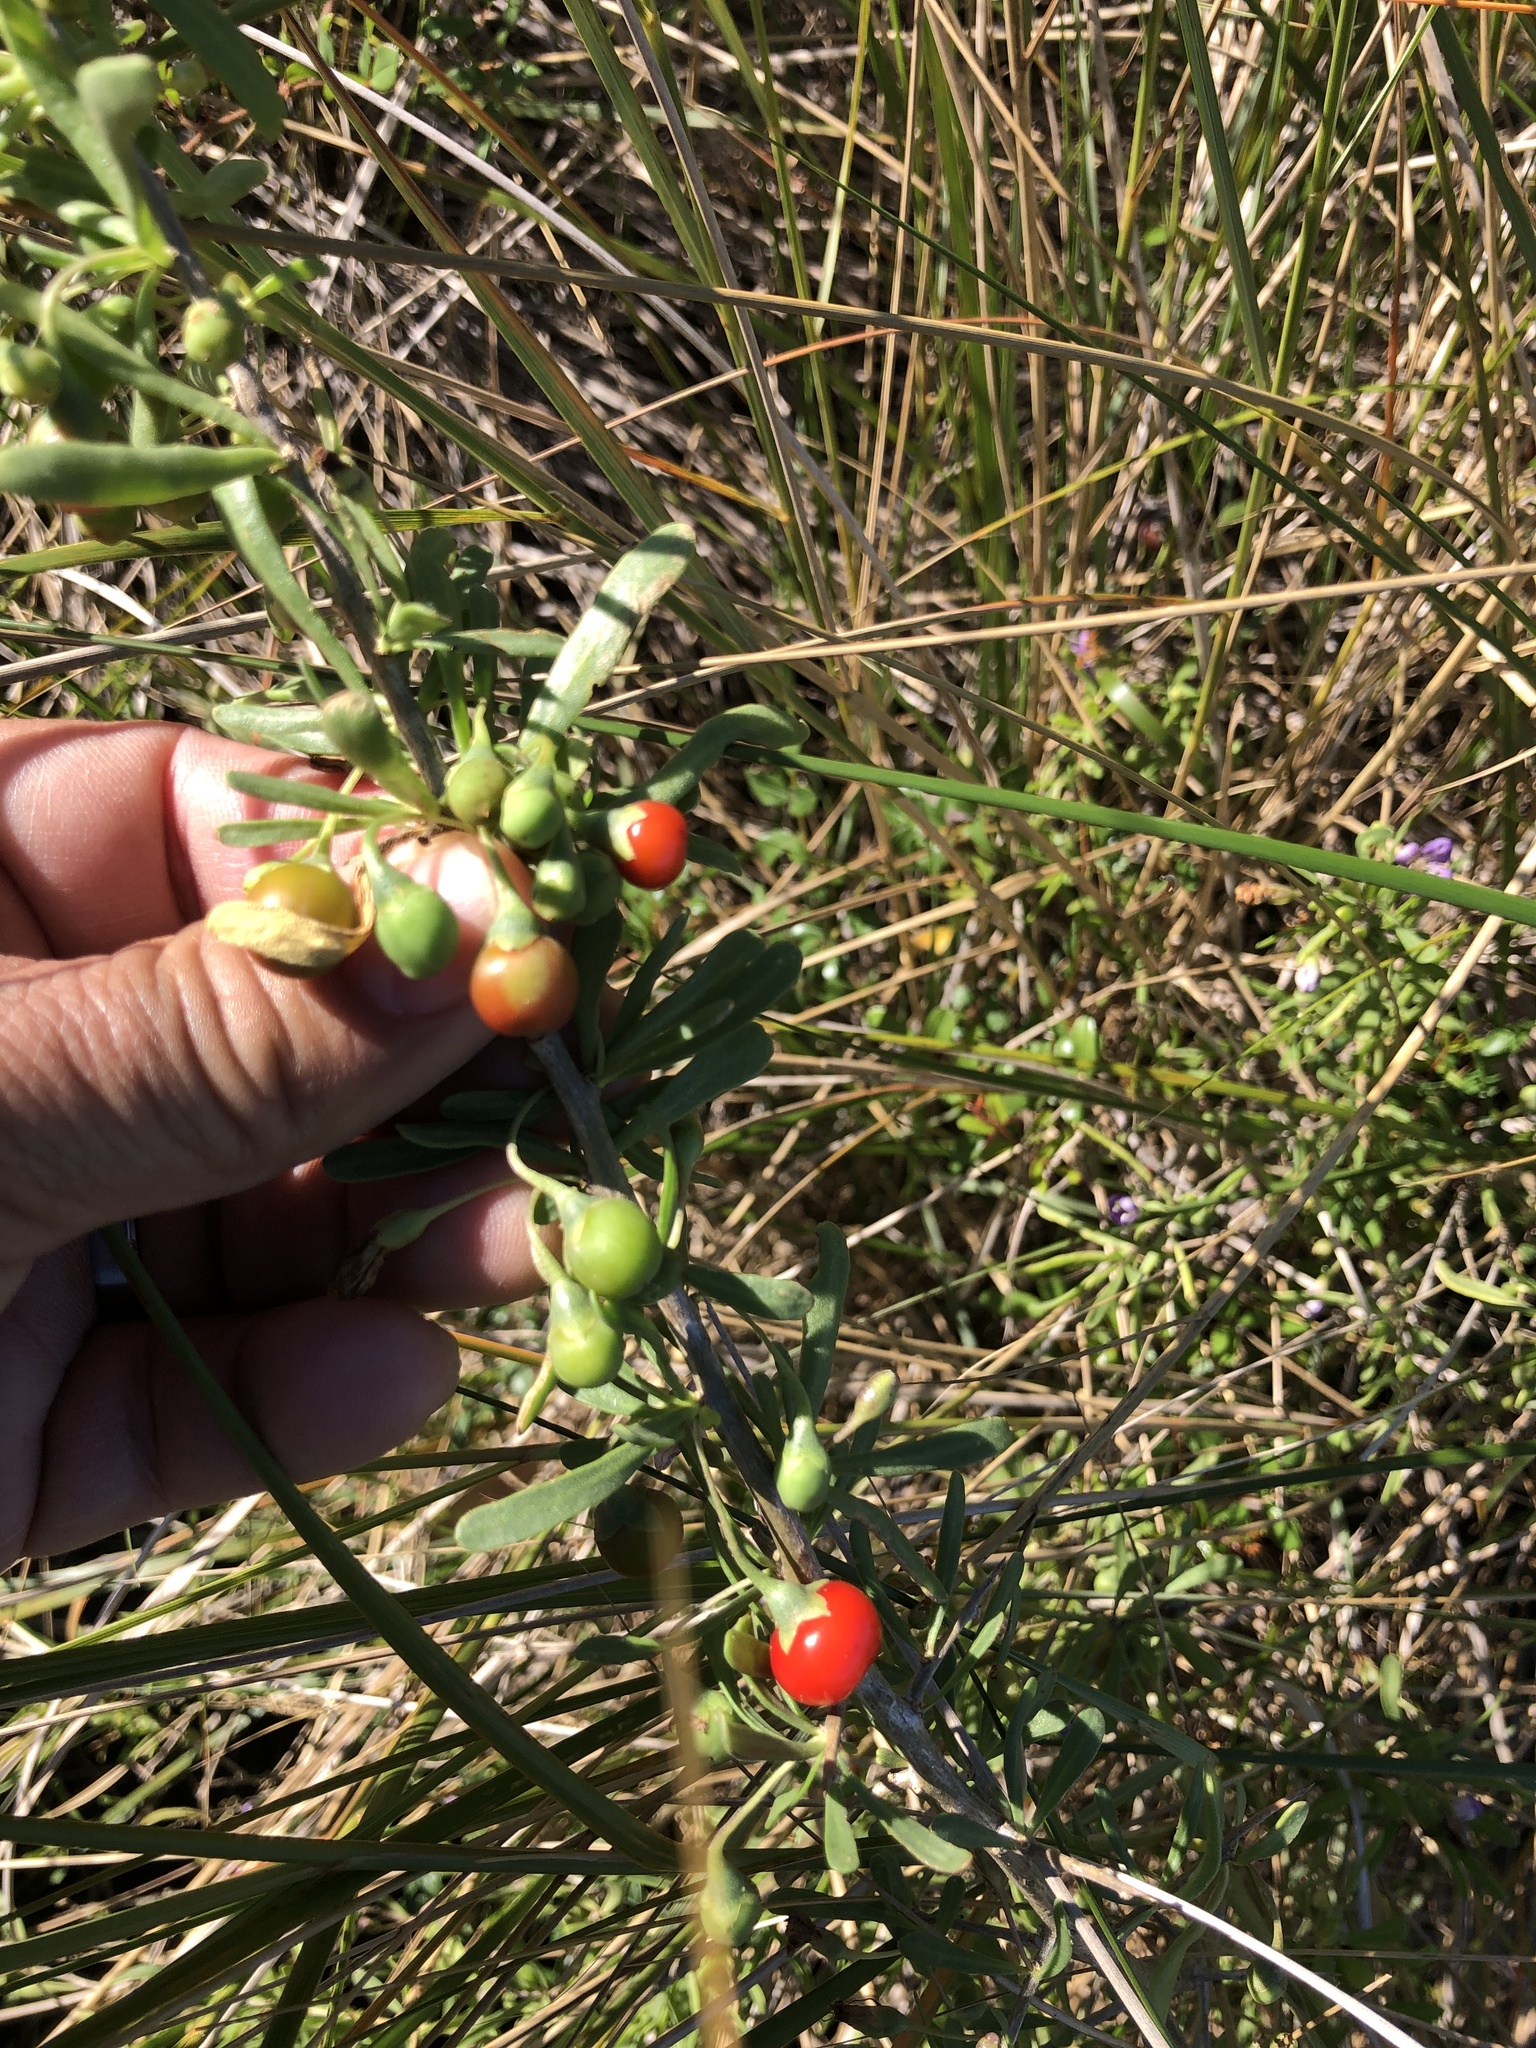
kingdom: Plantae
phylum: Tracheophyta
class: Magnoliopsida
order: Solanales
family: Solanaceae
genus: Lycium
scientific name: Lycium carolinianum
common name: Christmasberry
